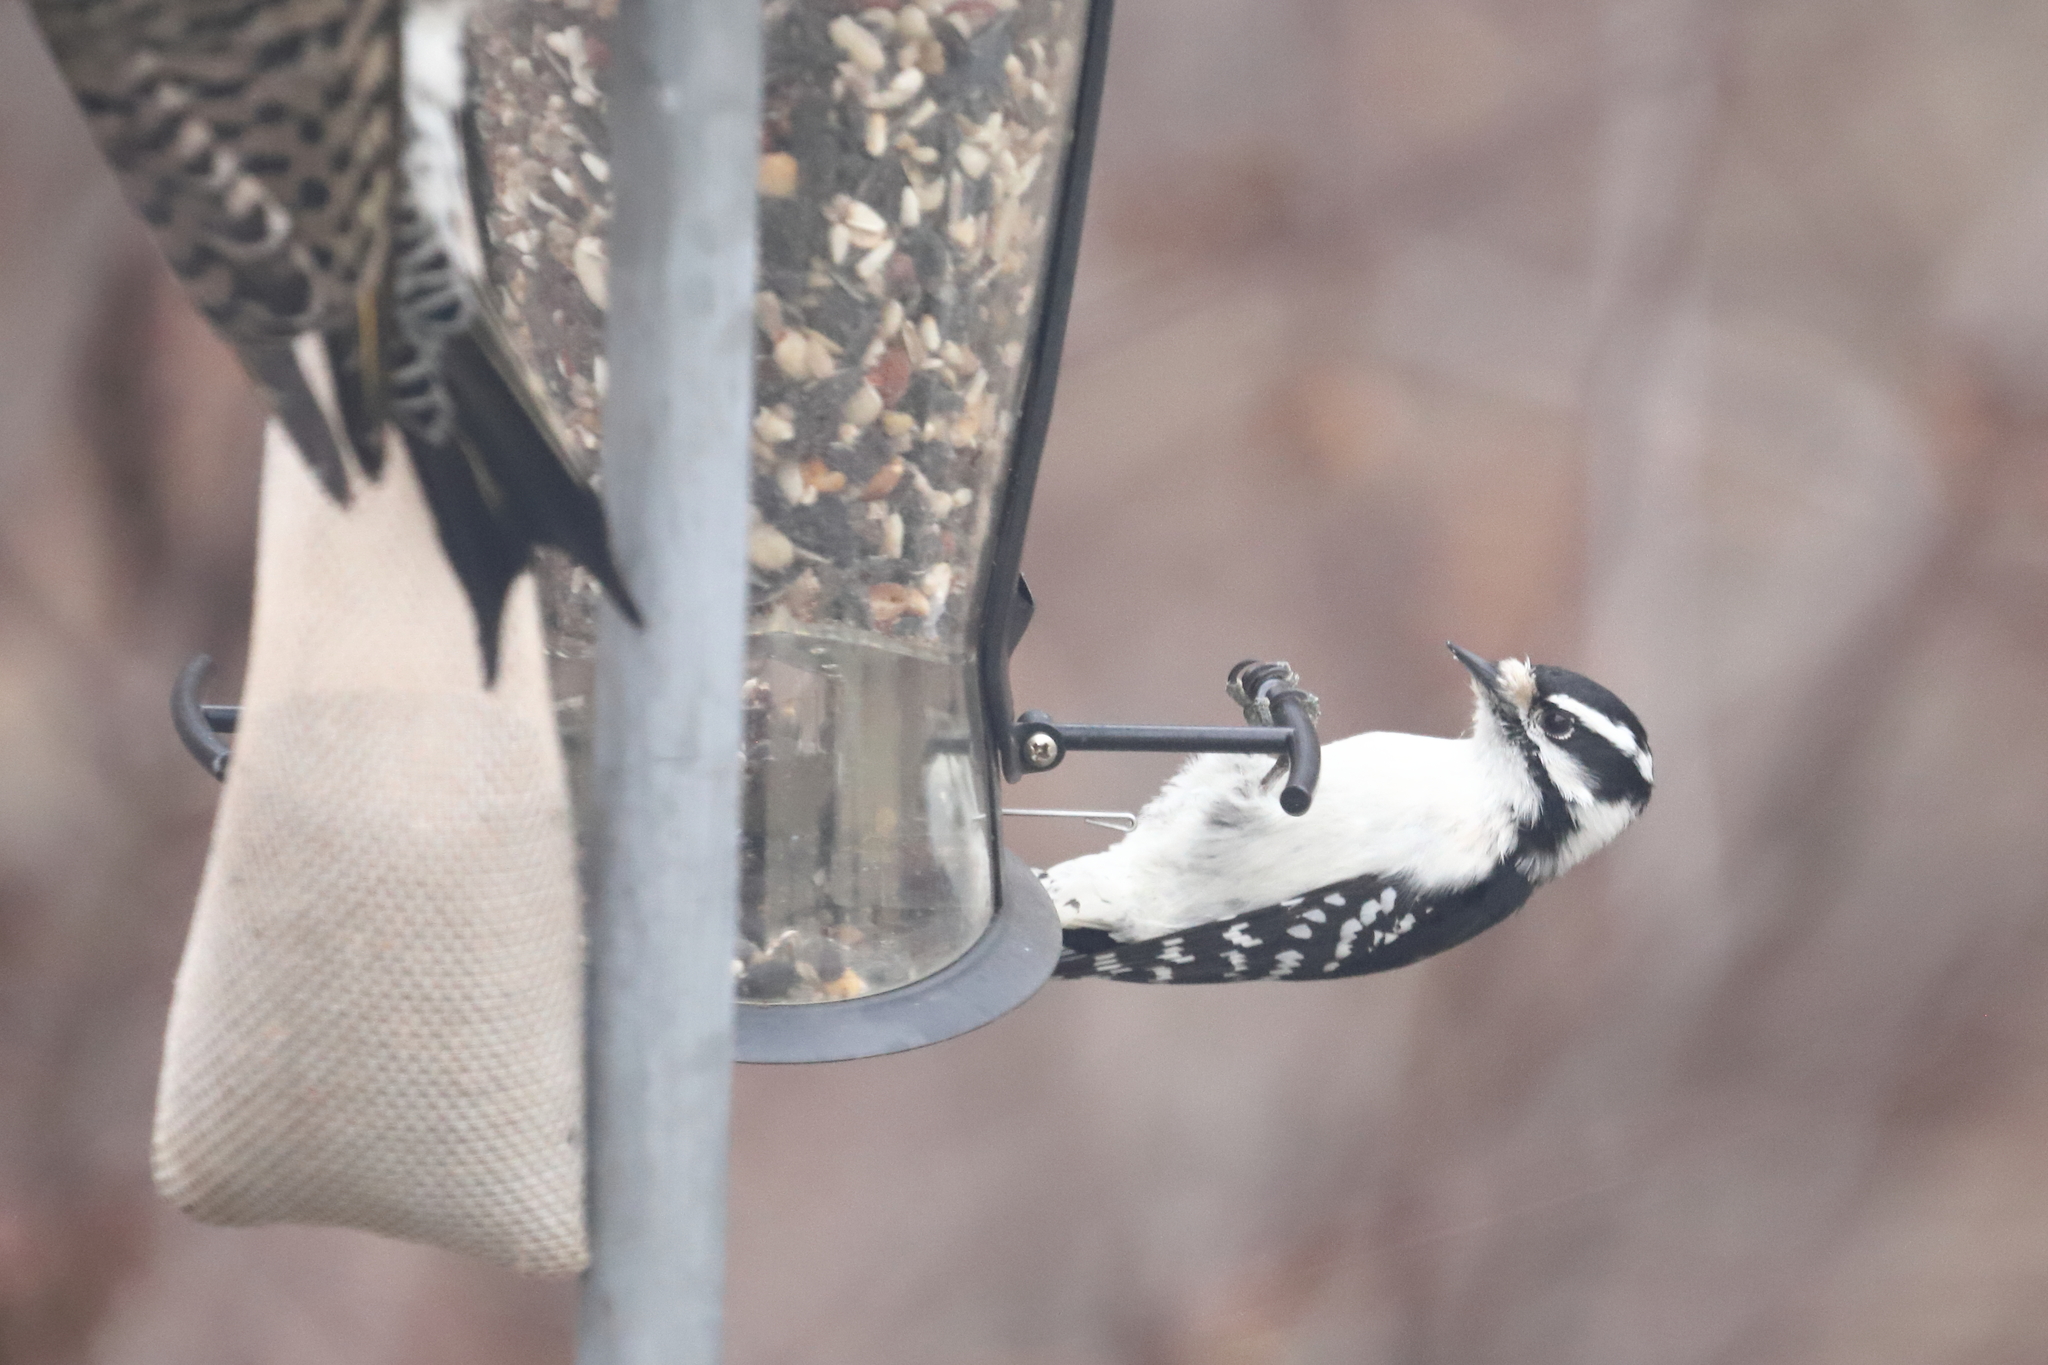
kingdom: Animalia
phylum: Chordata
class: Aves
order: Piciformes
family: Picidae
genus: Dryobates
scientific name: Dryobates pubescens
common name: Downy woodpecker
